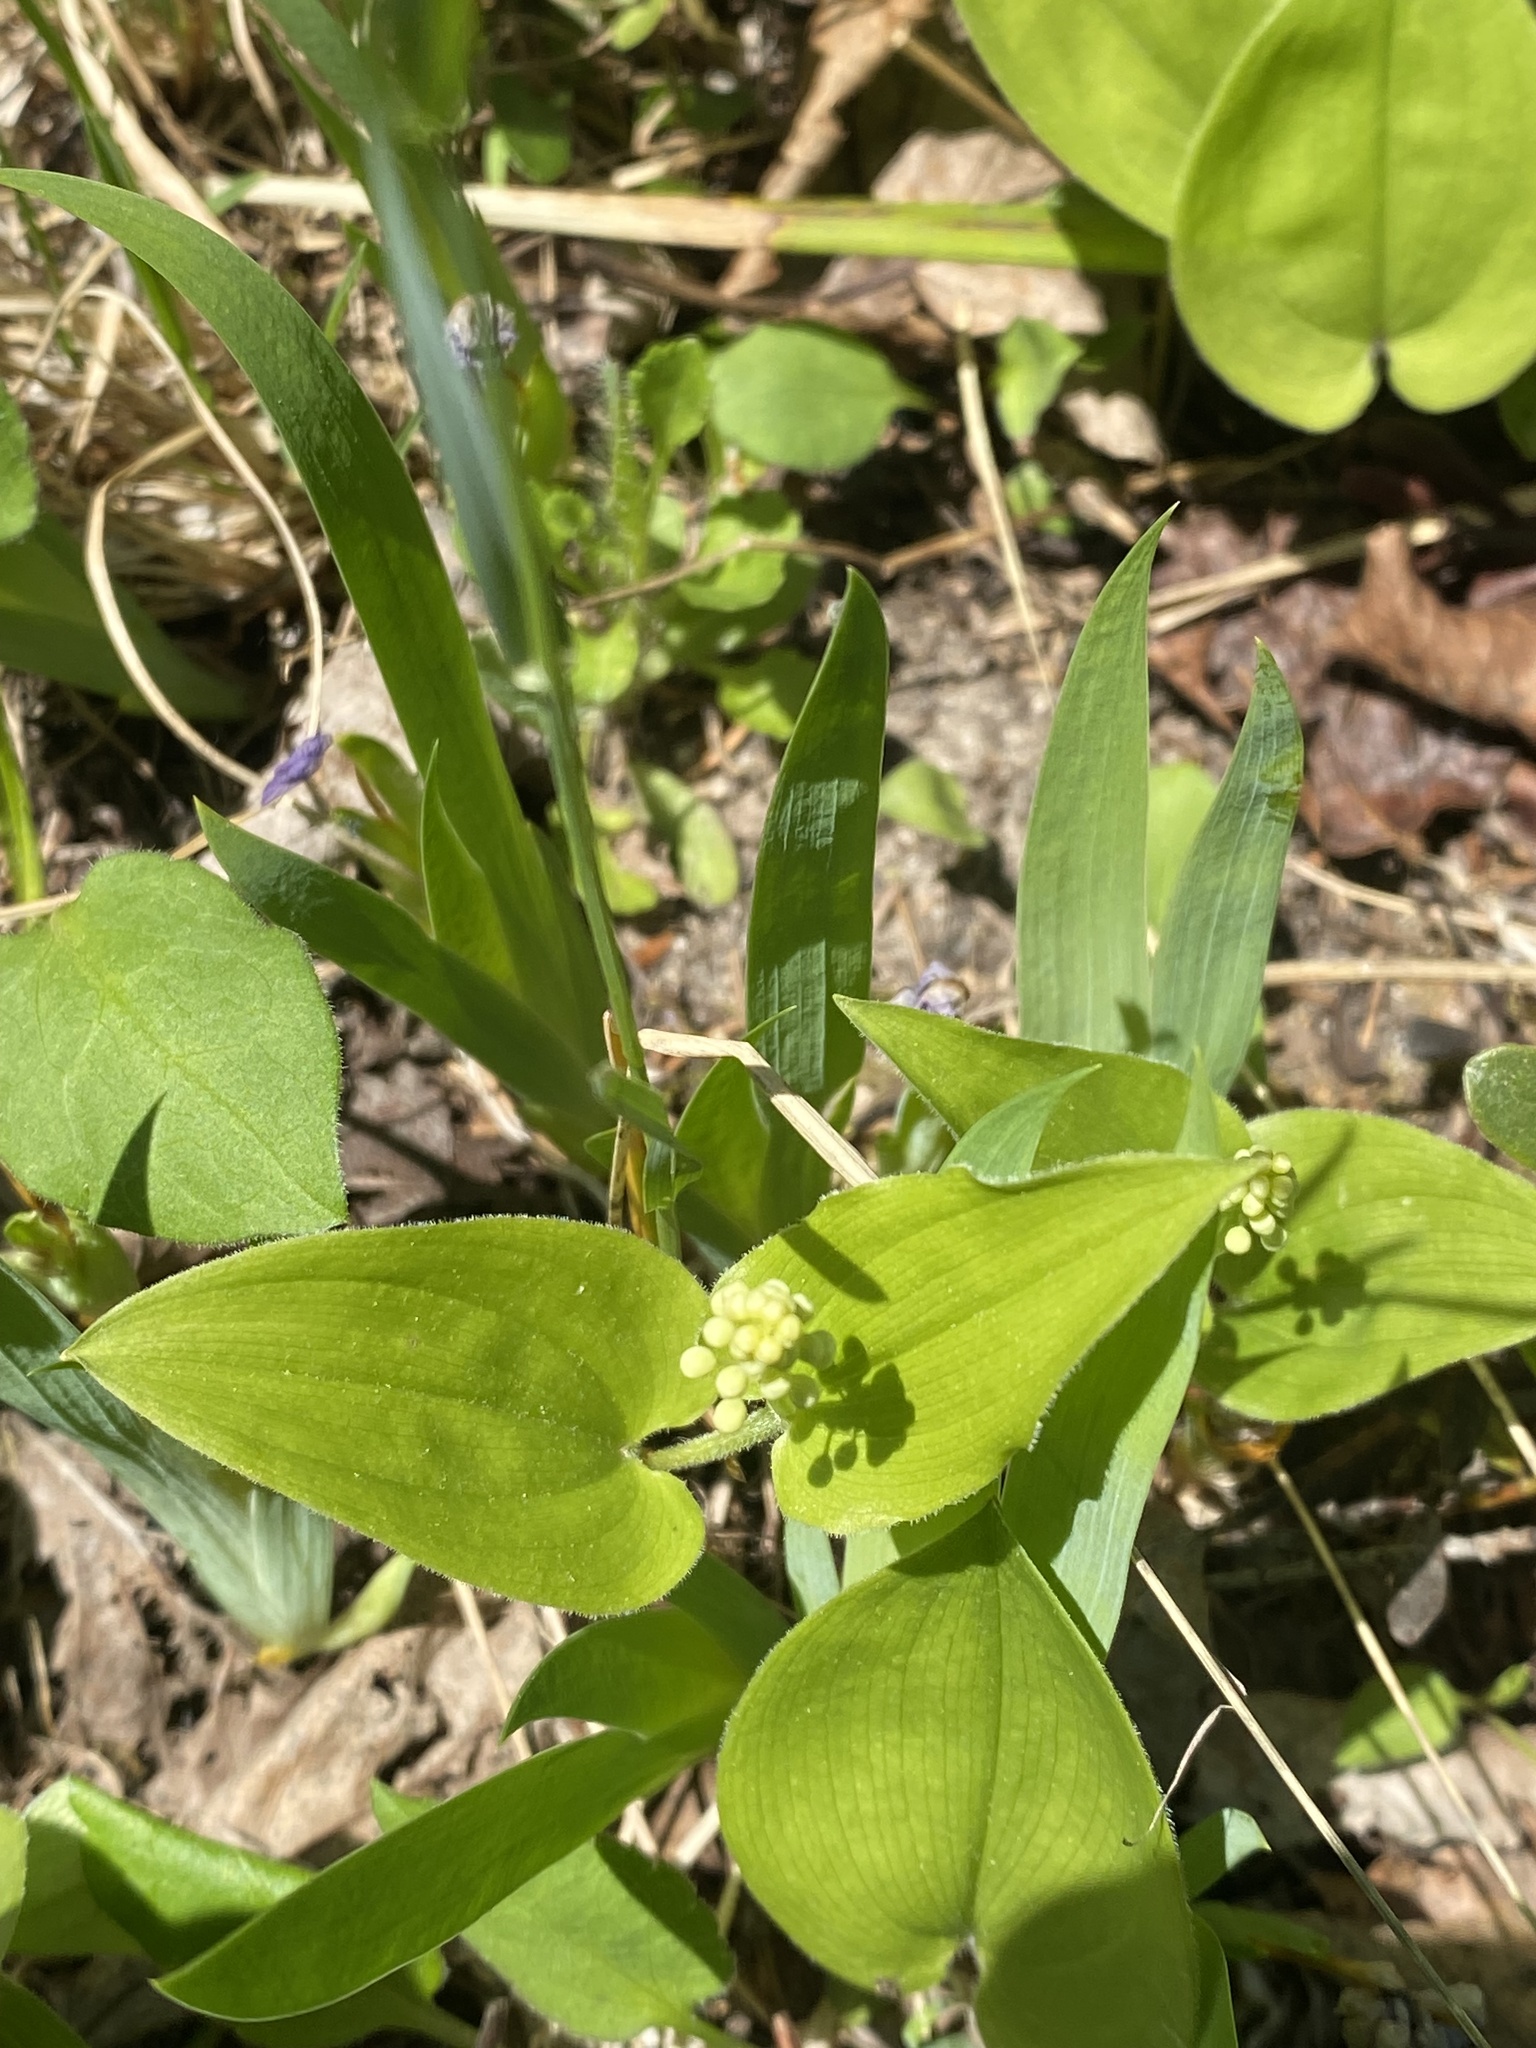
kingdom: Plantae
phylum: Tracheophyta
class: Liliopsida
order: Asparagales
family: Asparagaceae
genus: Maianthemum
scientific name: Maianthemum canadense
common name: False lily-of-the-valley
